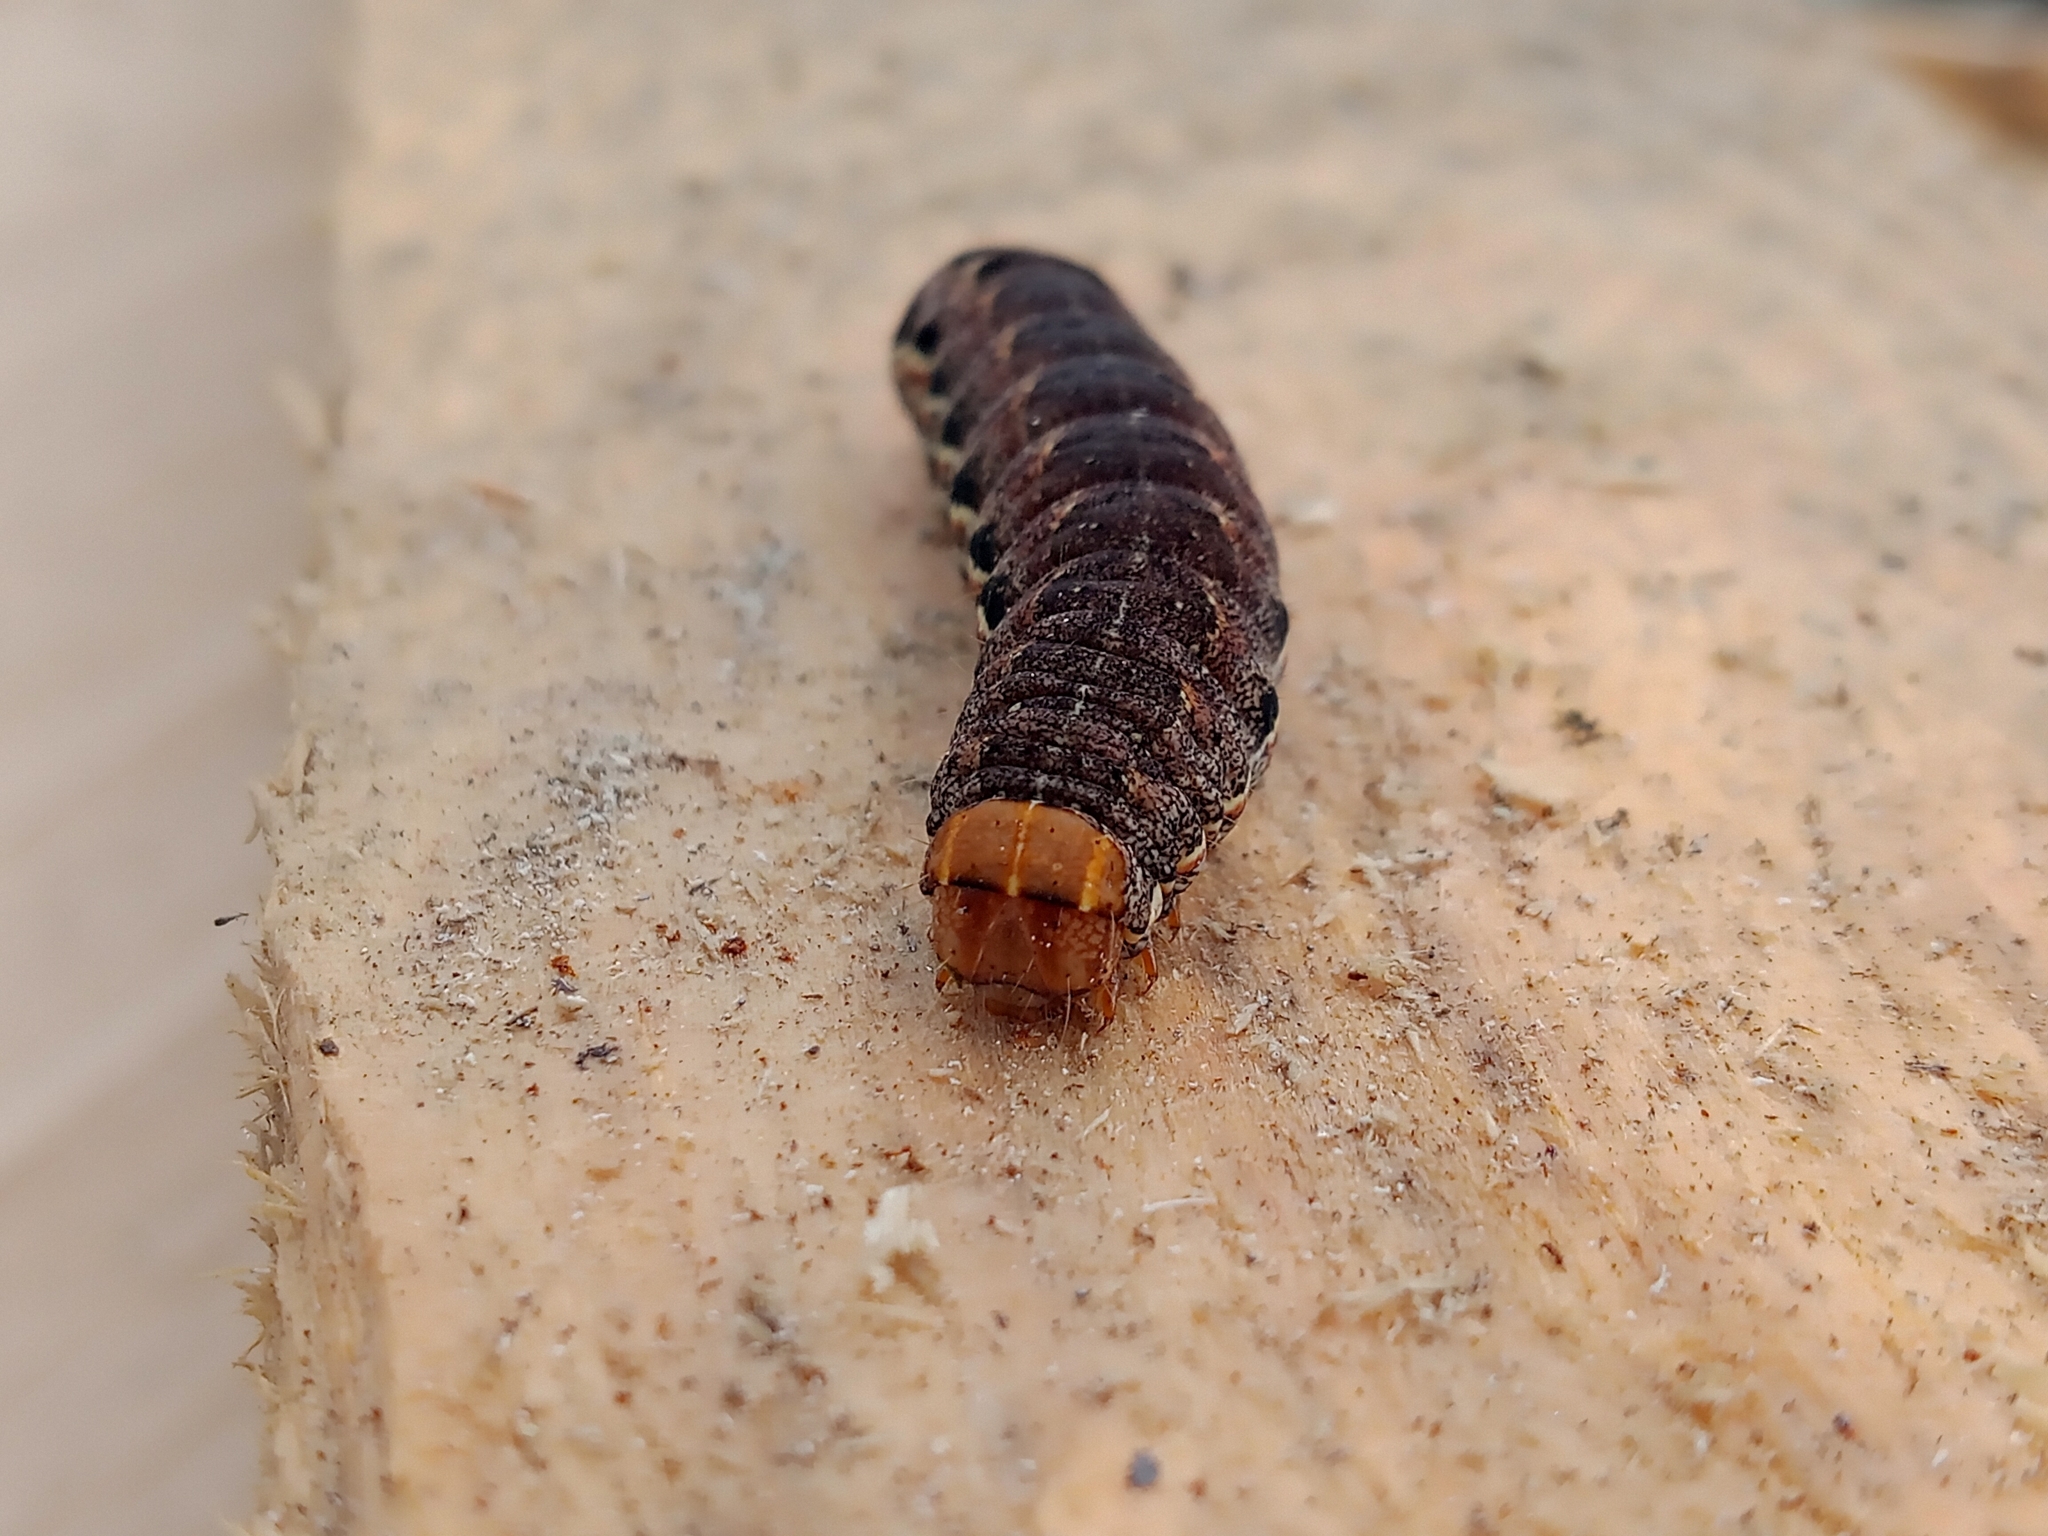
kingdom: Animalia
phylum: Arthropoda
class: Insecta
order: Lepidoptera
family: Noctuidae
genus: Eurois
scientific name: Eurois occulta
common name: Great brocade
